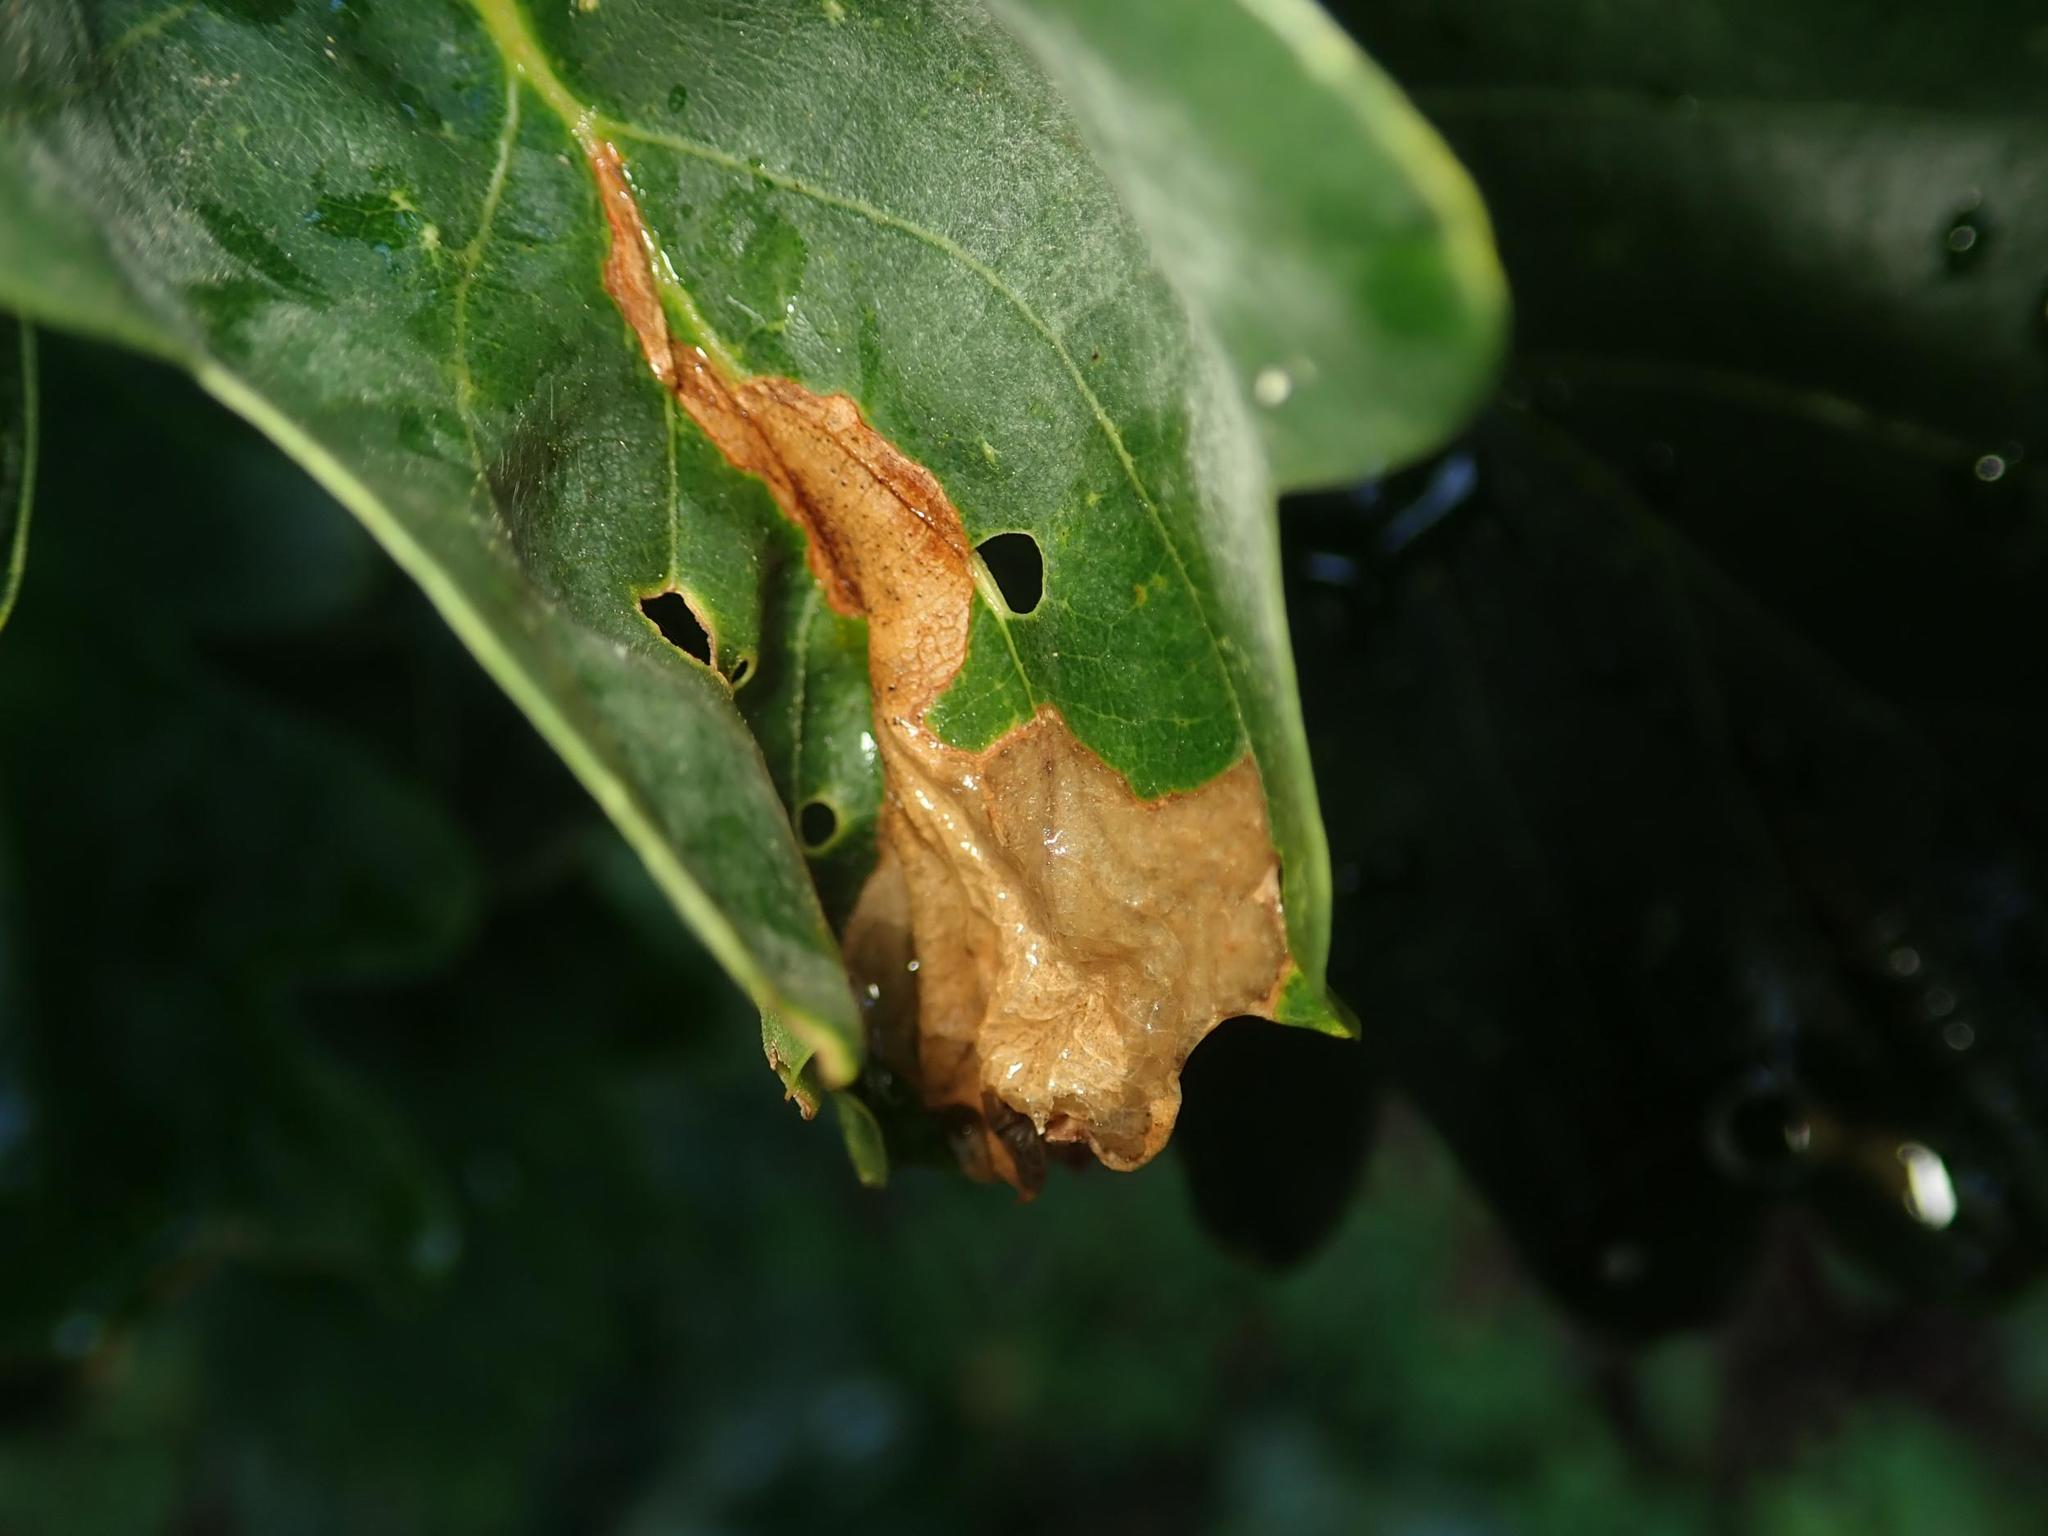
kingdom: Animalia
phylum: Arthropoda
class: Insecta
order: Coleoptera
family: Curculionidae
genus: Orchestes
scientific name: Orchestes quercus
